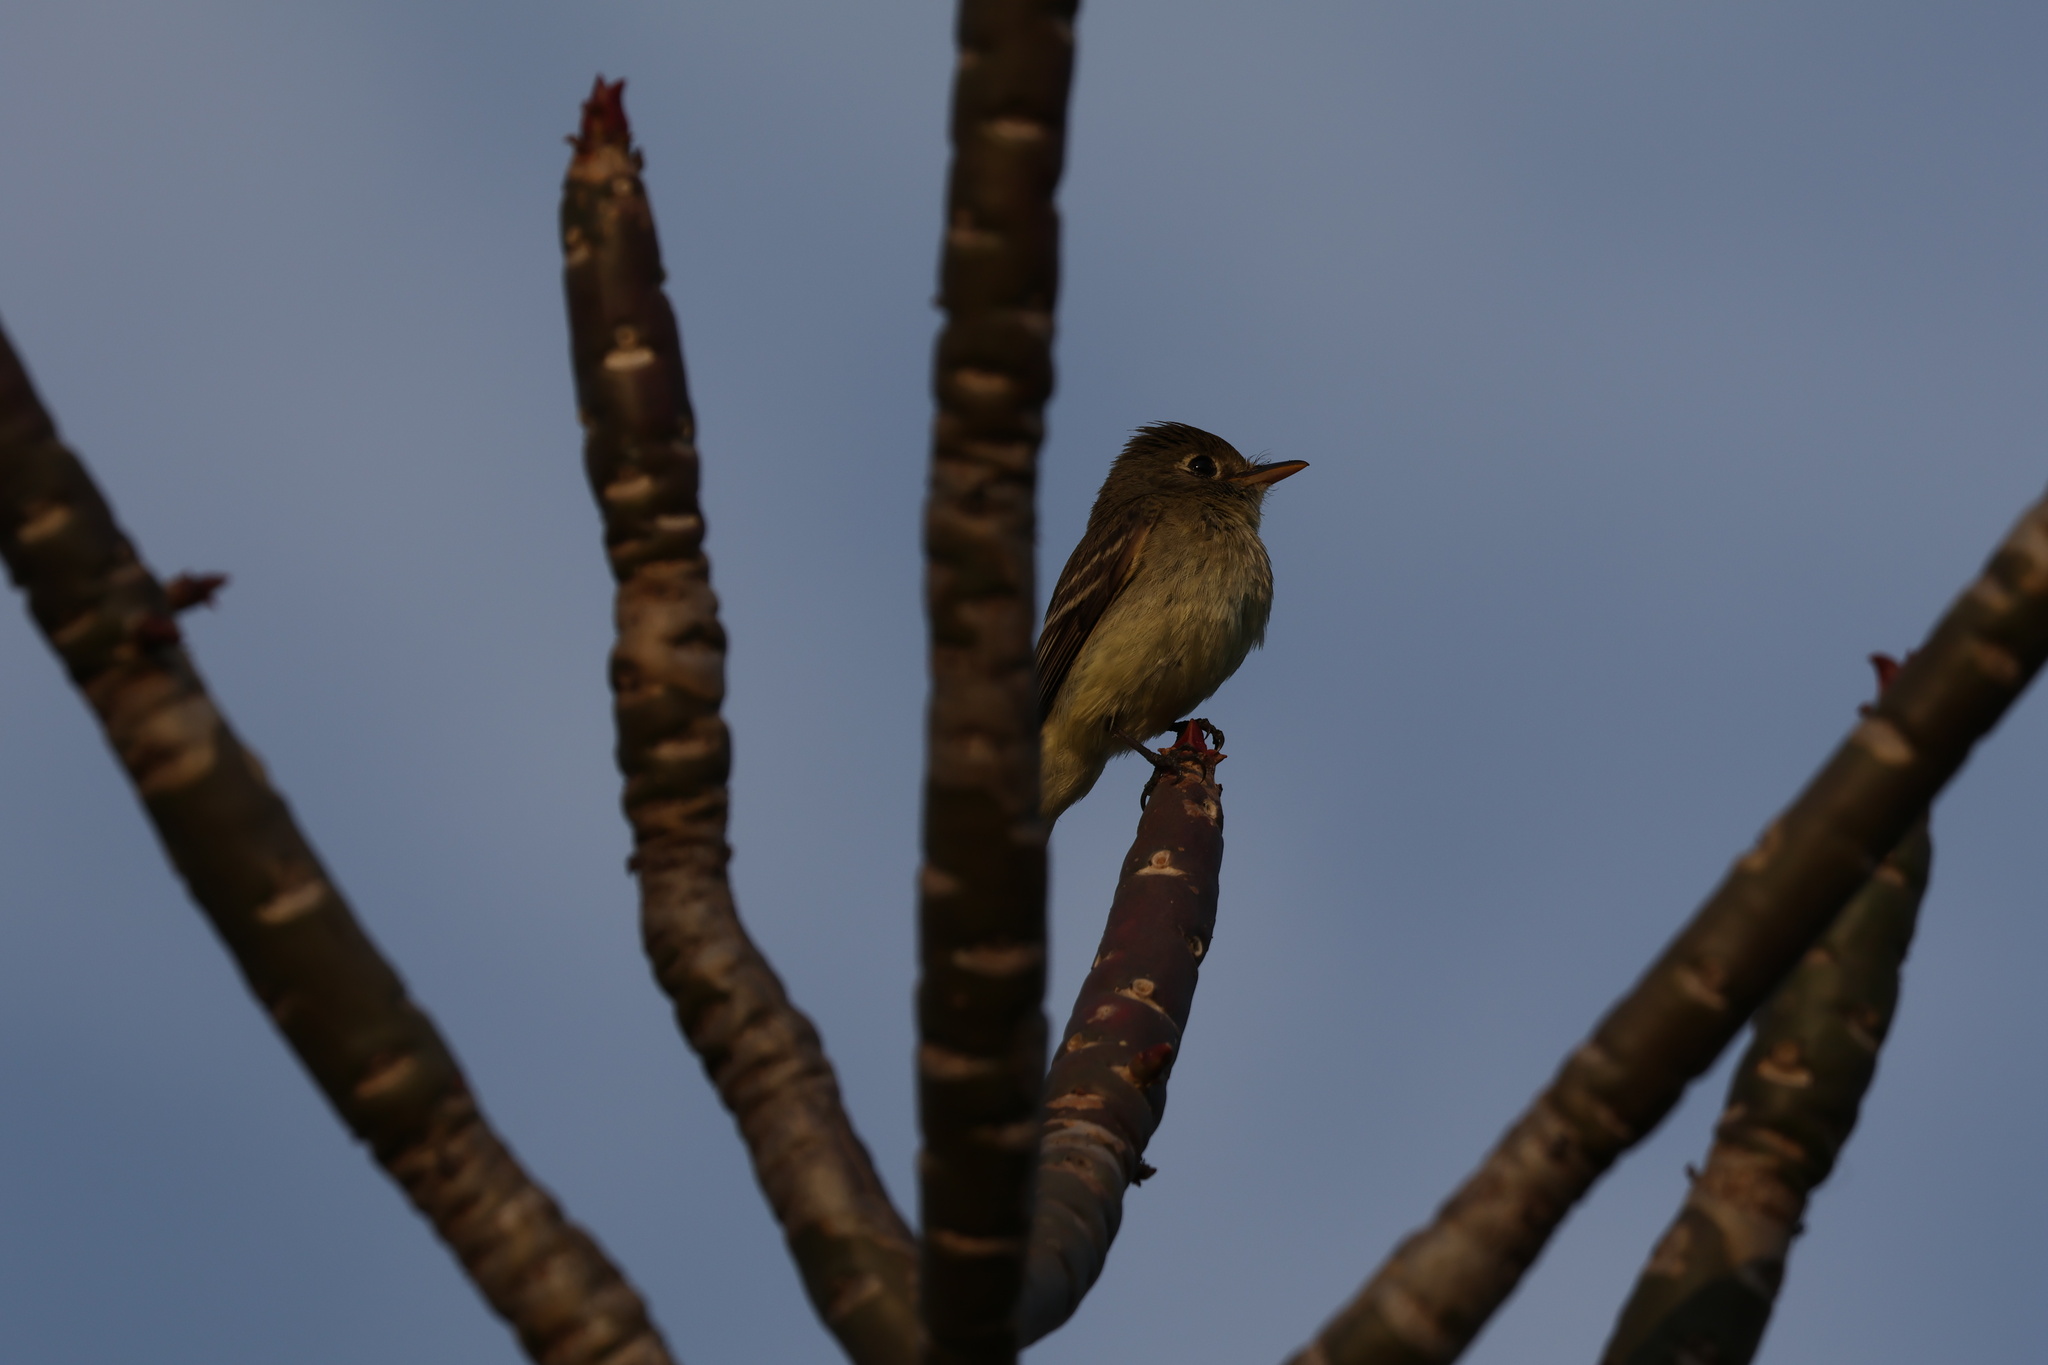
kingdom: Animalia
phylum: Chordata
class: Aves
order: Passeriformes
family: Tyrannidae
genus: Empidonax
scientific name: Empidonax difficilis
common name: Pacific-slope flycatcher
